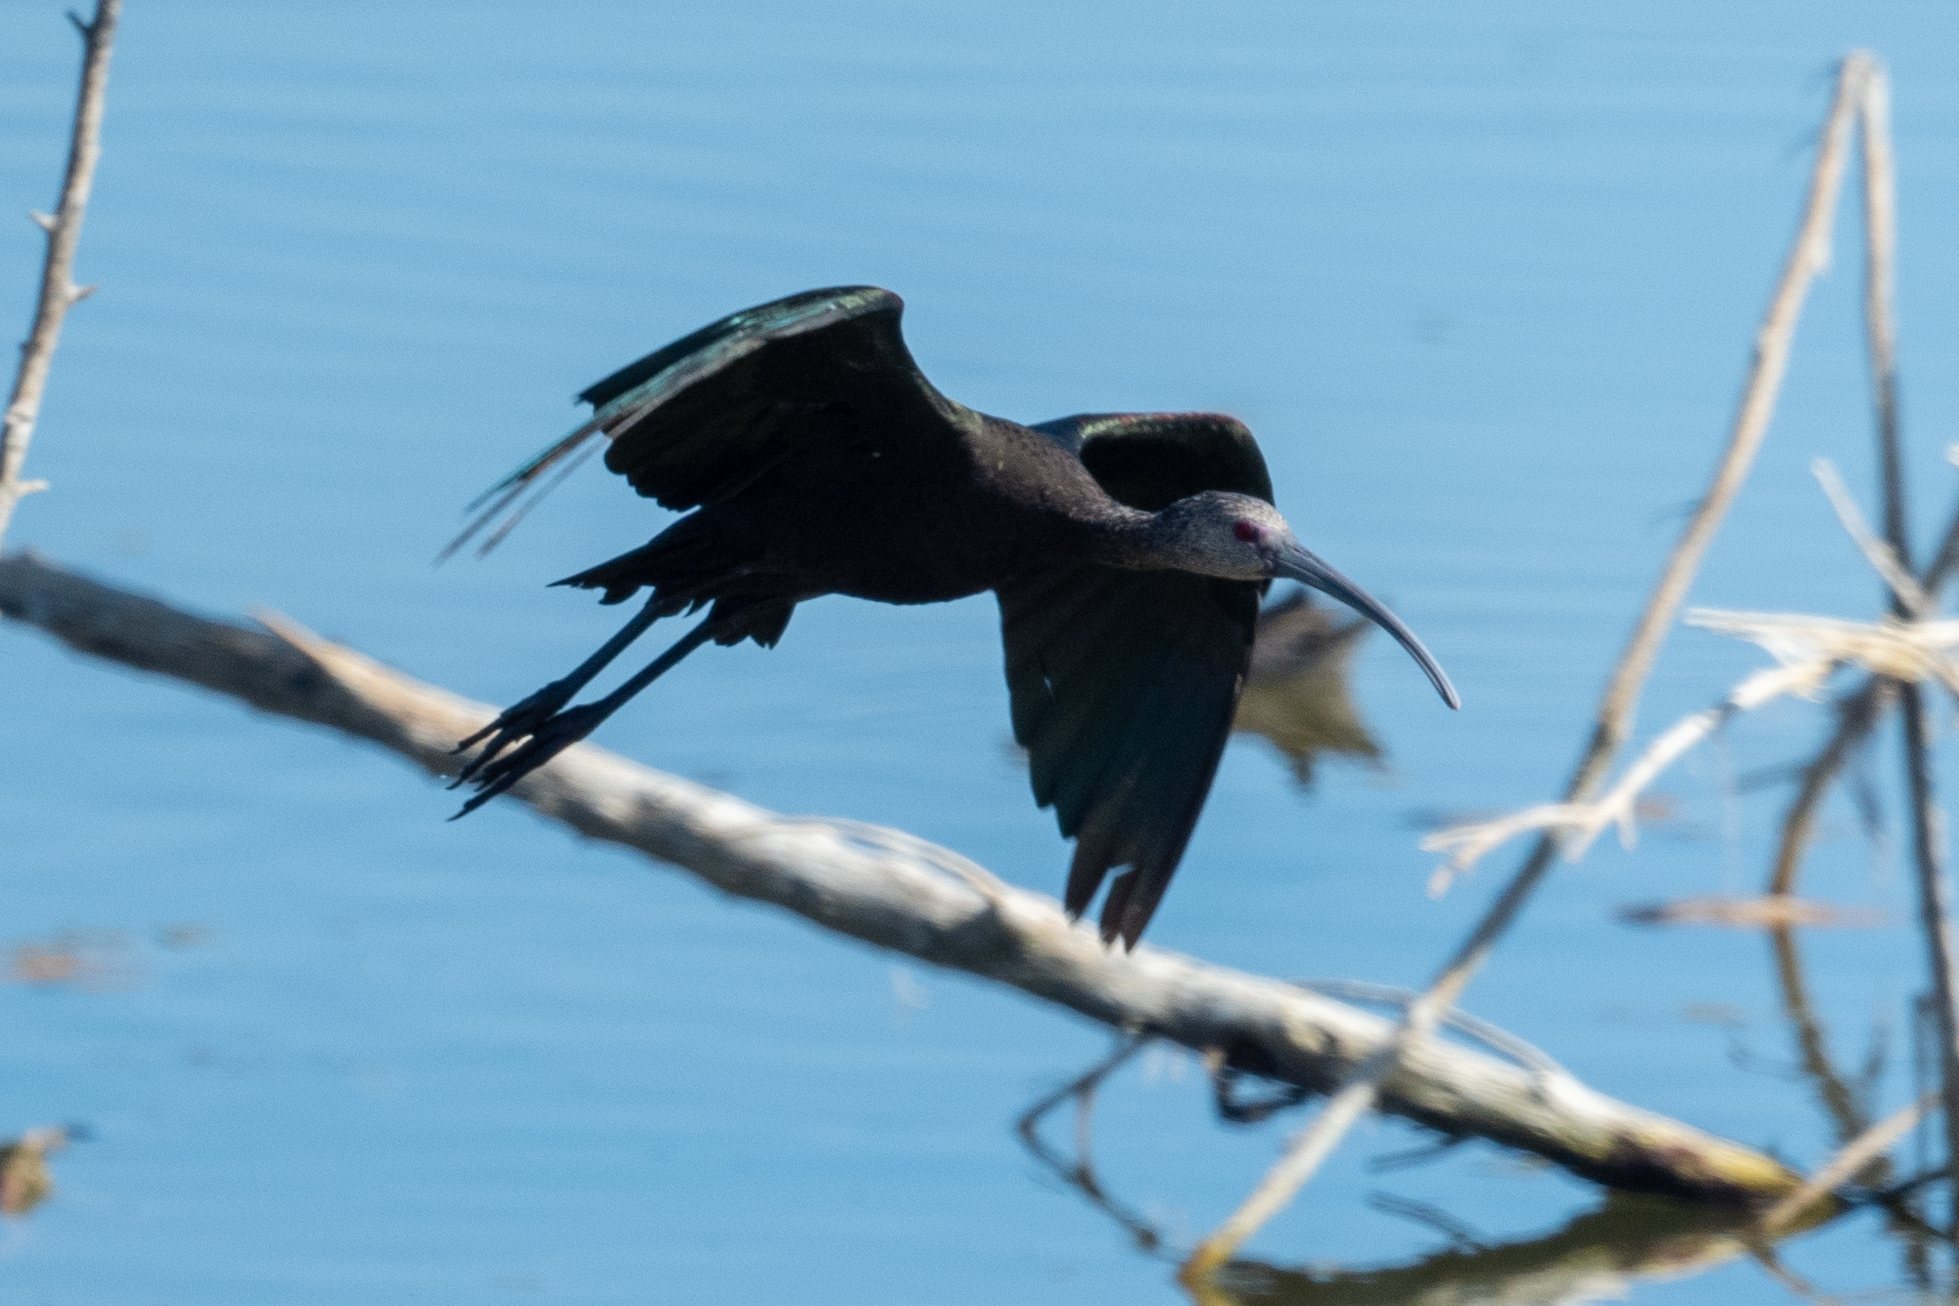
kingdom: Animalia
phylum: Chordata
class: Aves
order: Pelecaniformes
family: Threskiornithidae
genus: Plegadis
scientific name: Plegadis chihi
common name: White-faced ibis
